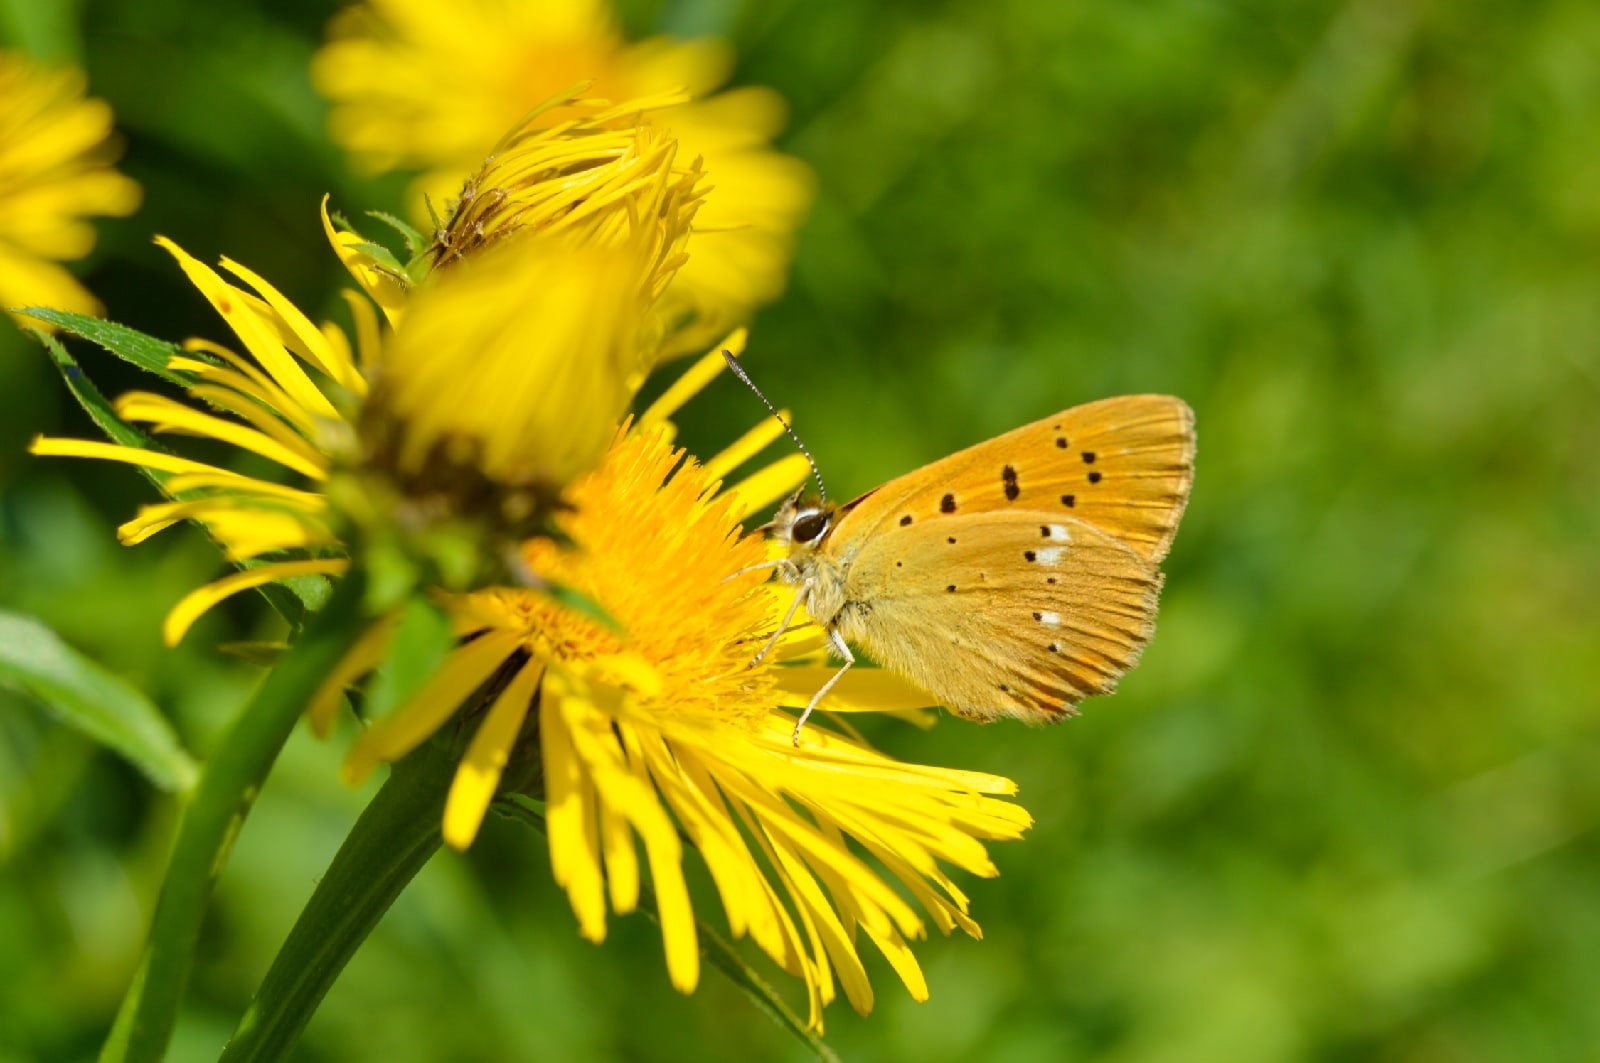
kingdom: Animalia
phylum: Arthropoda
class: Insecta
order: Lepidoptera
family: Lycaenidae
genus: Lycaena
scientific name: Lycaena virgaureae
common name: Scarce copper
